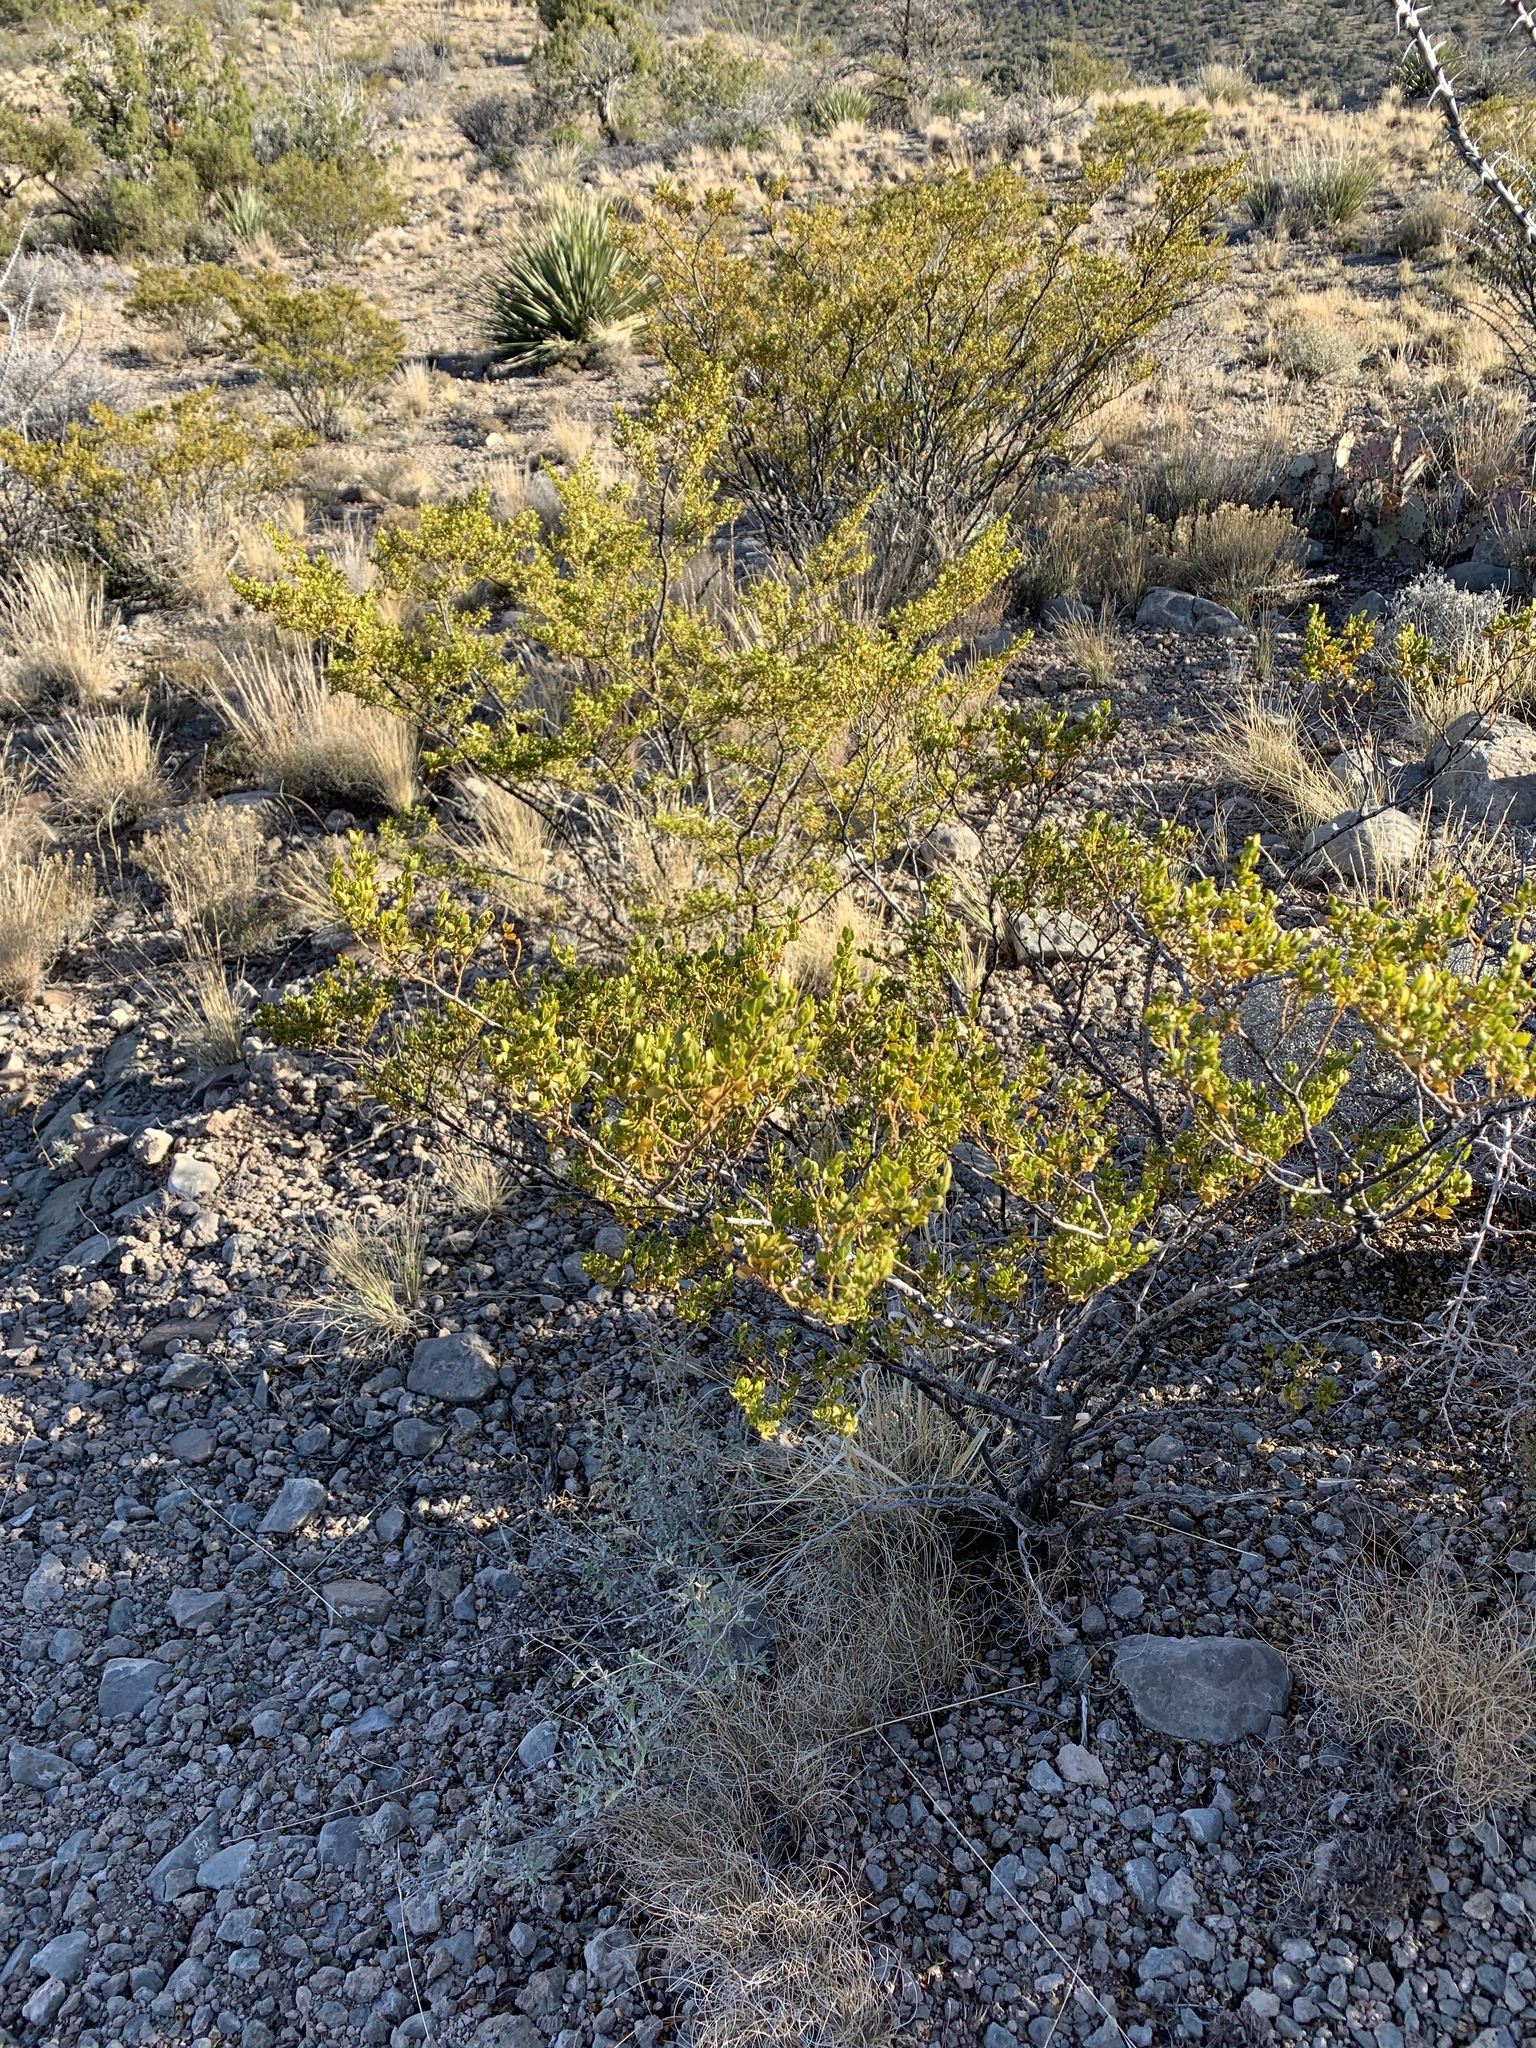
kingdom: Plantae
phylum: Tracheophyta
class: Magnoliopsida
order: Zygophyllales
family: Zygophyllaceae
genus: Larrea
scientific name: Larrea tridentata
